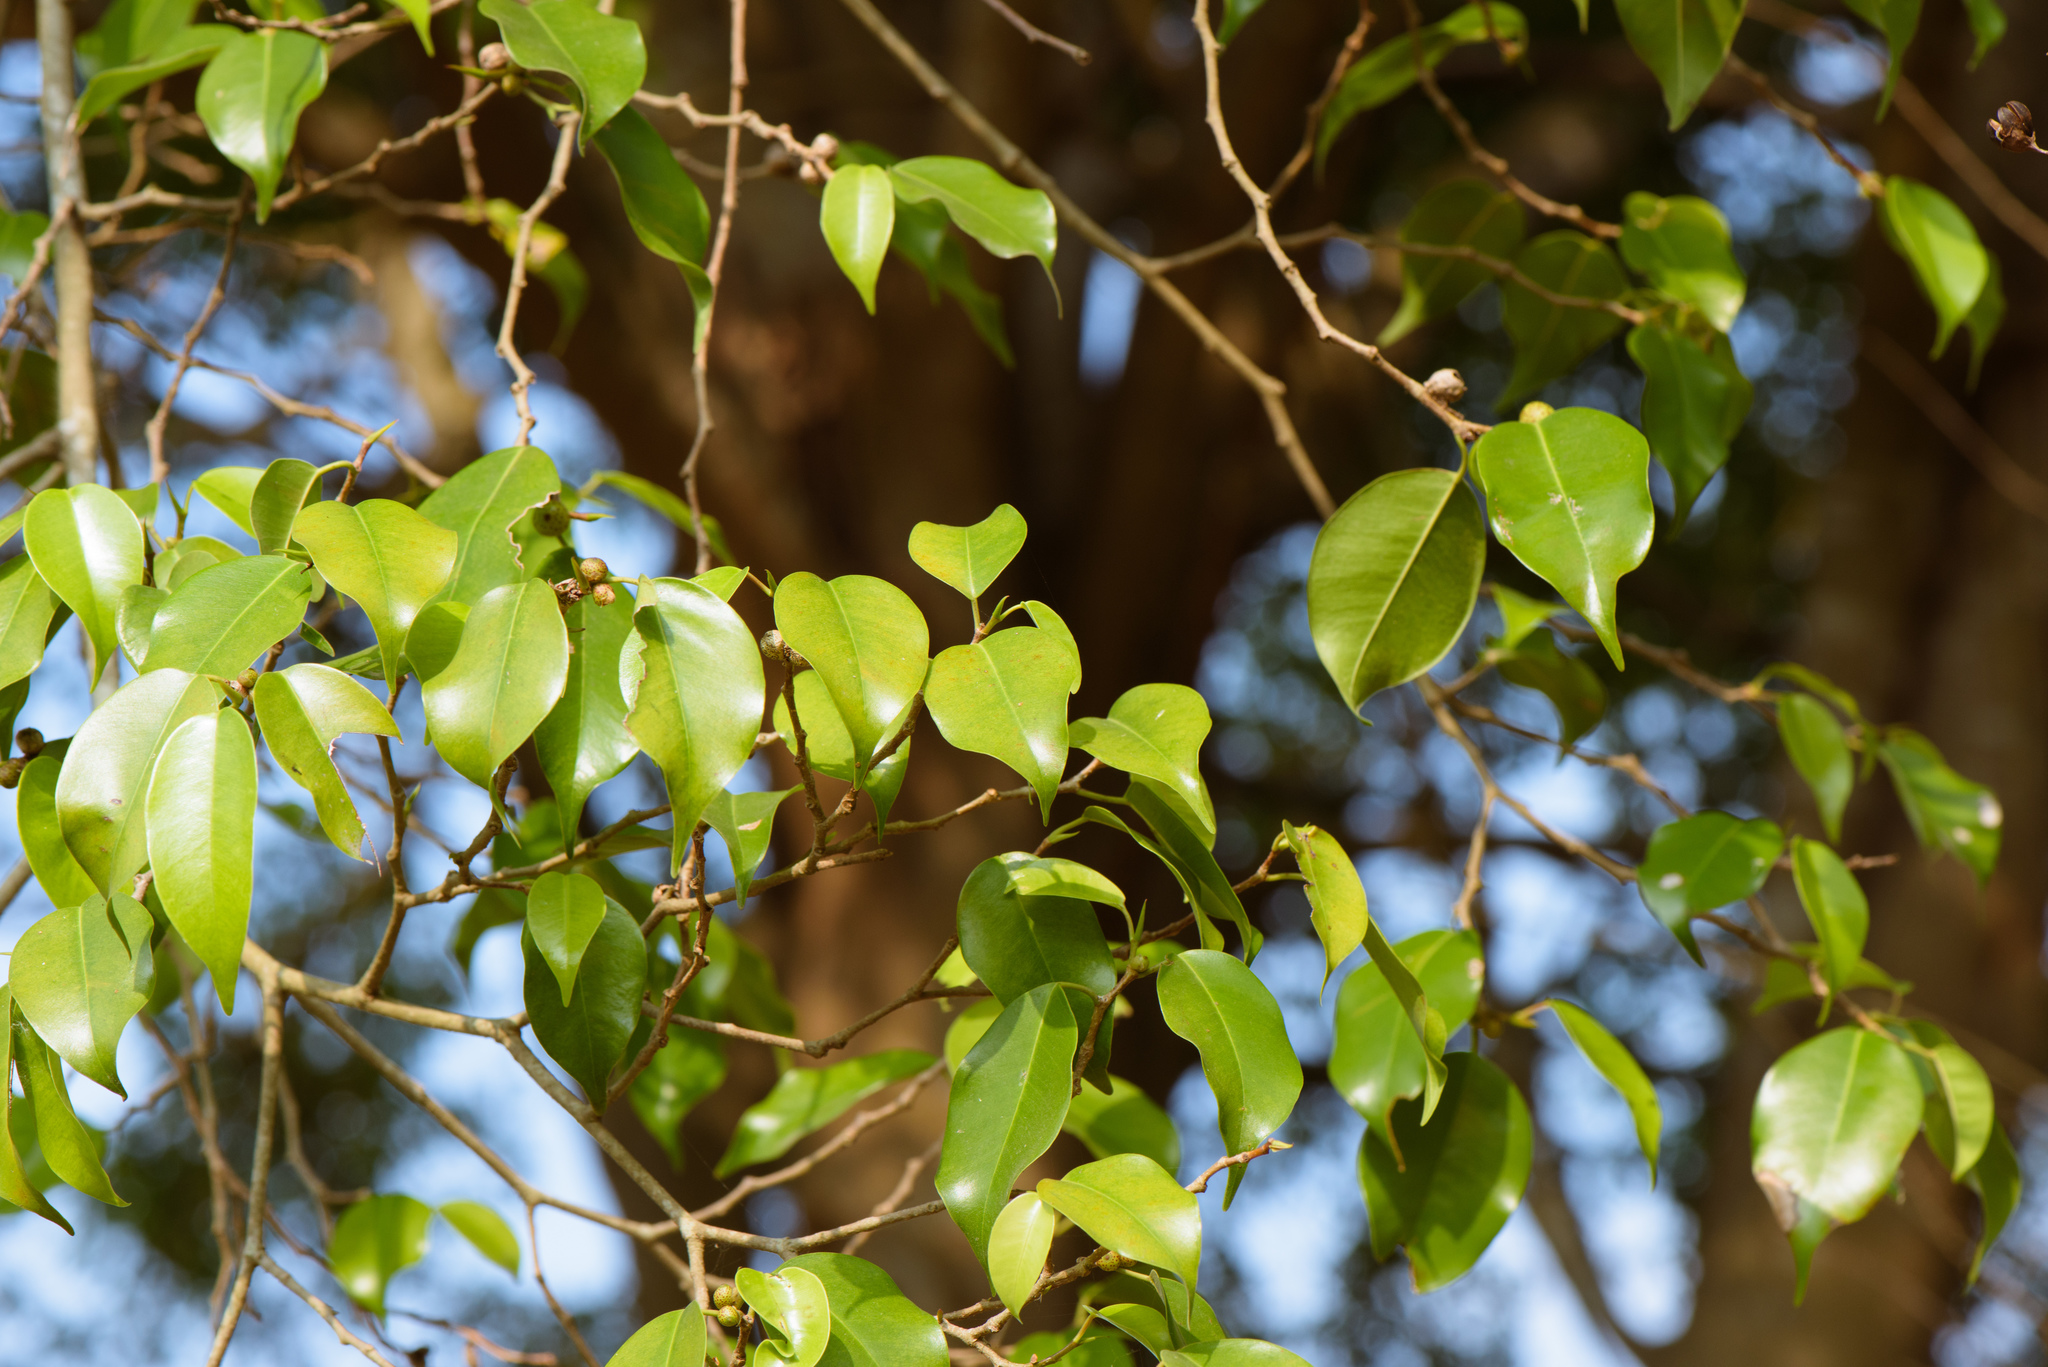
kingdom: Plantae
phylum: Tracheophyta
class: Magnoliopsida
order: Rosales
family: Moraceae
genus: Ficus
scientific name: Ficus benjamina
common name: Weeping fig
